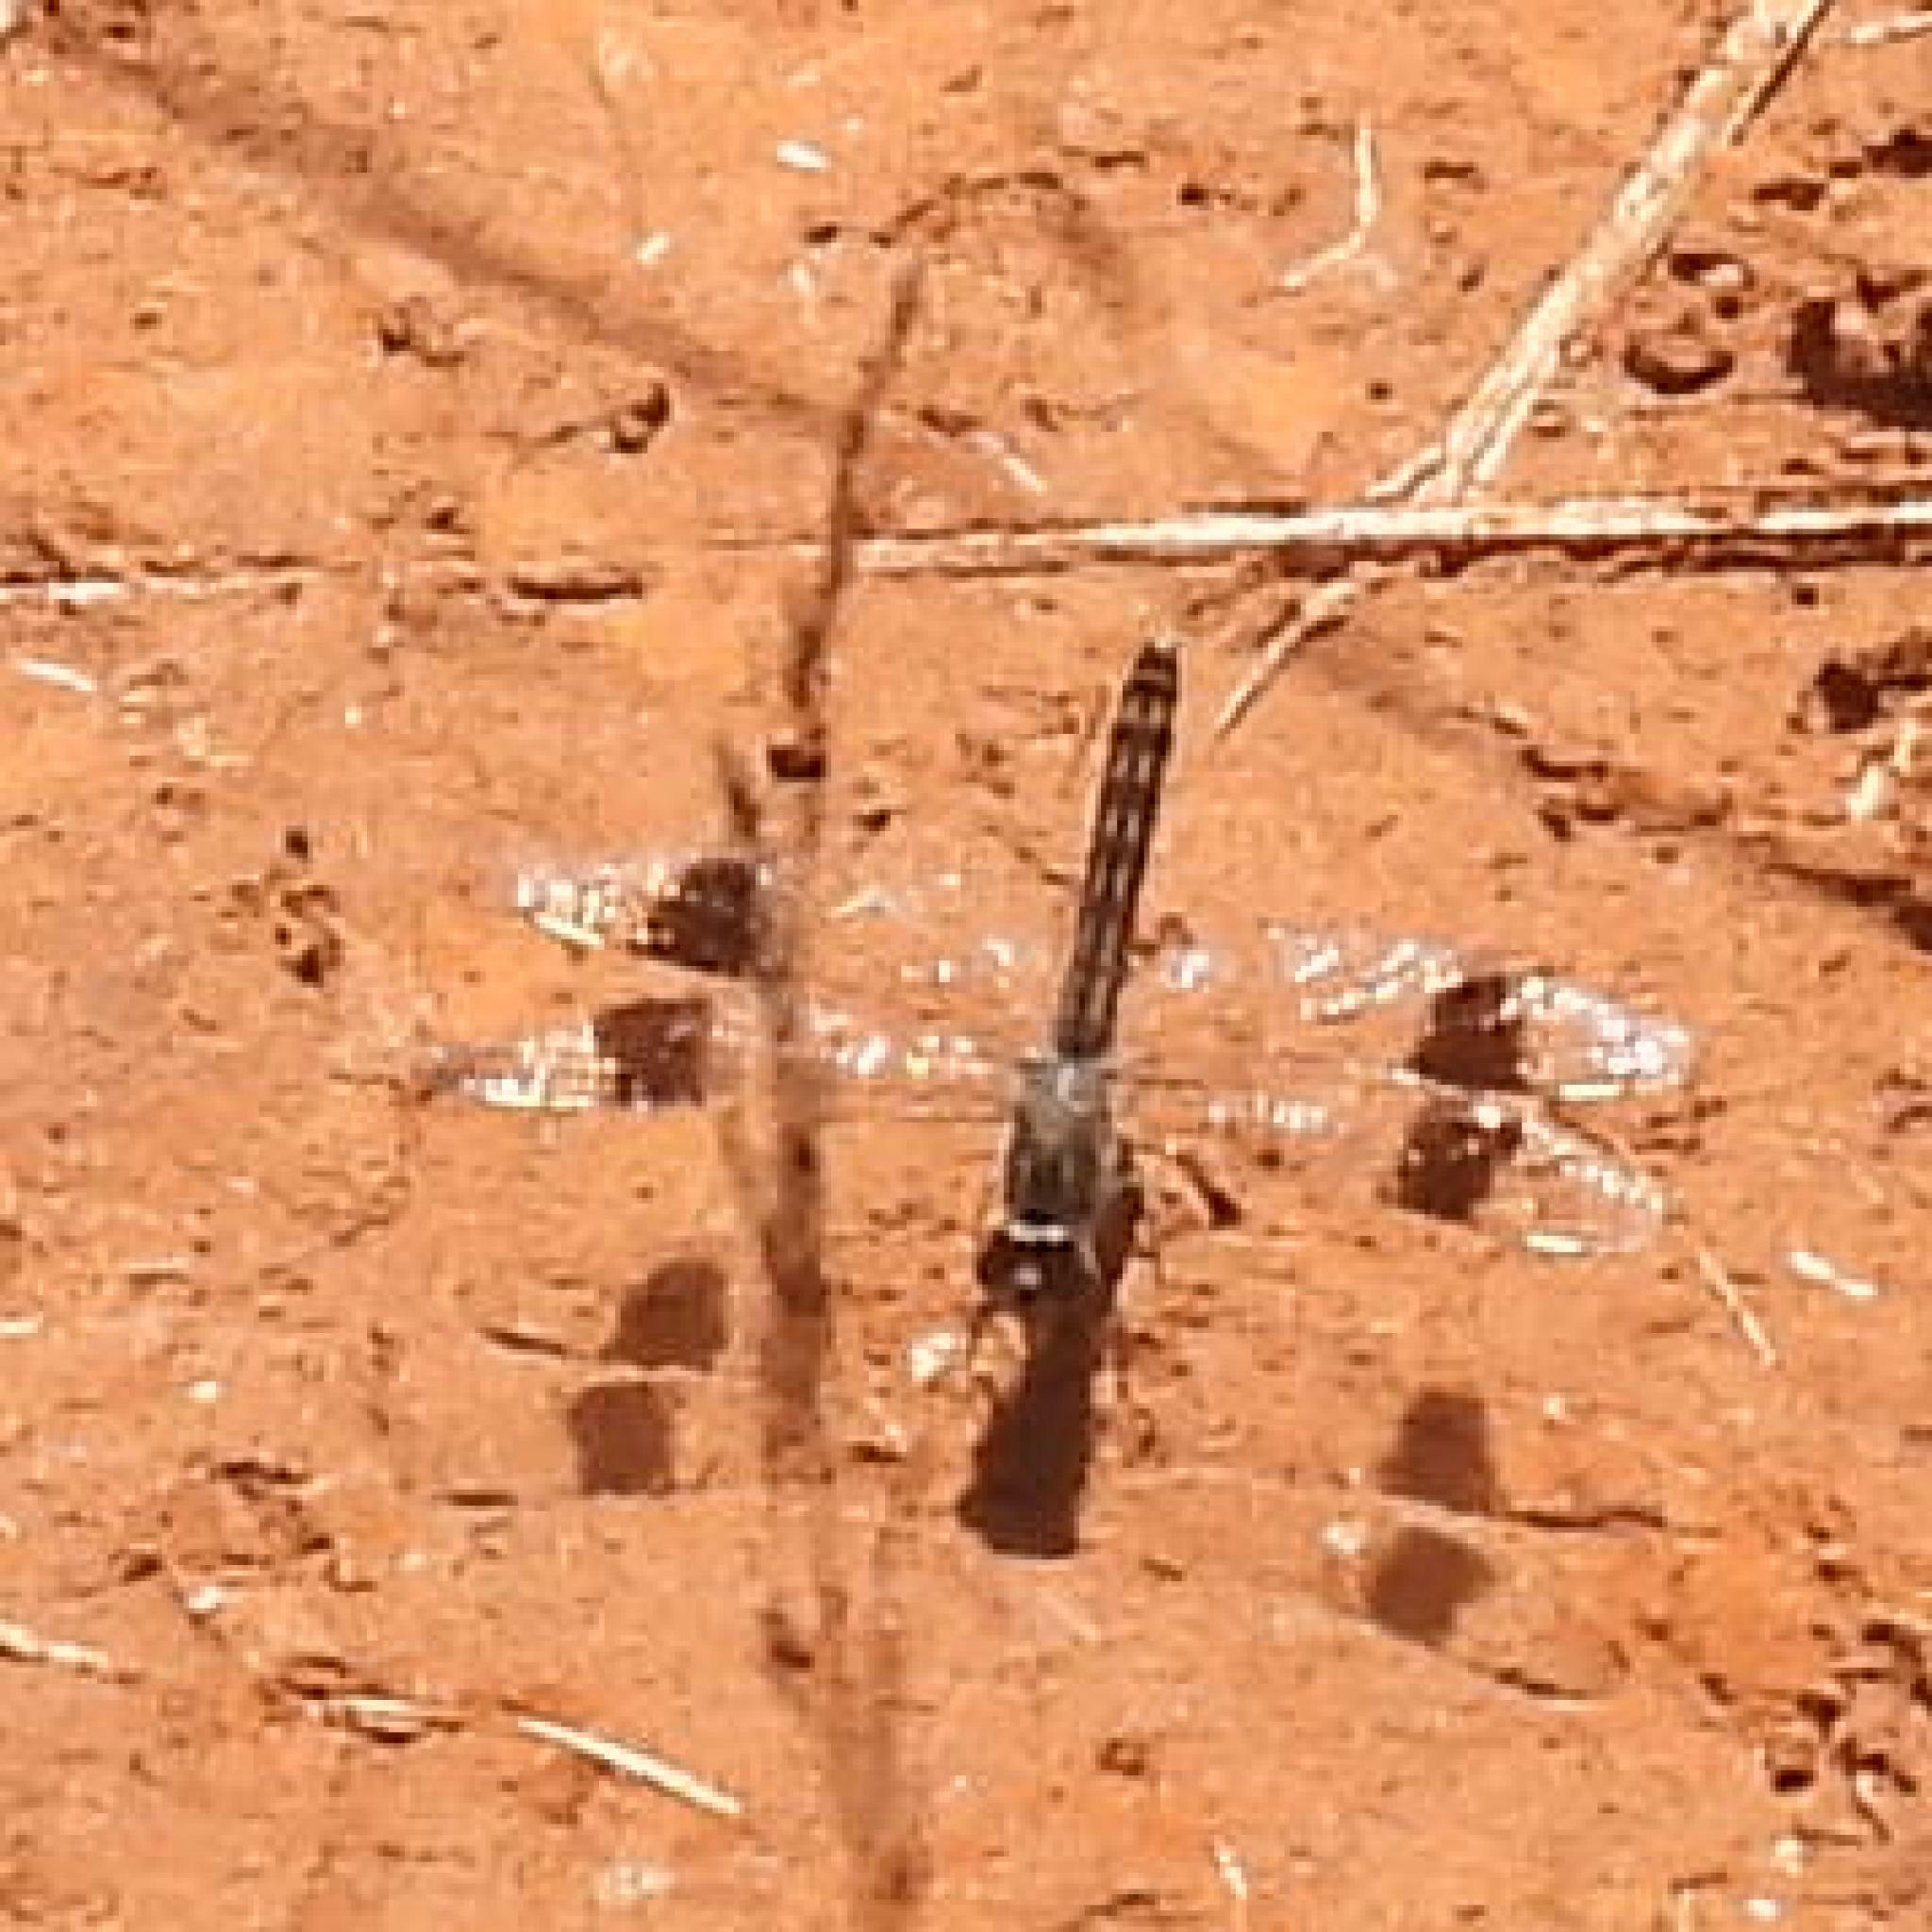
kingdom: Animalia
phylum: Arthropoda
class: Insecta
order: Odonata
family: Libellulidae
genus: Brachythemis
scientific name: Brachythemis leucosticta
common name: Banded groundling
